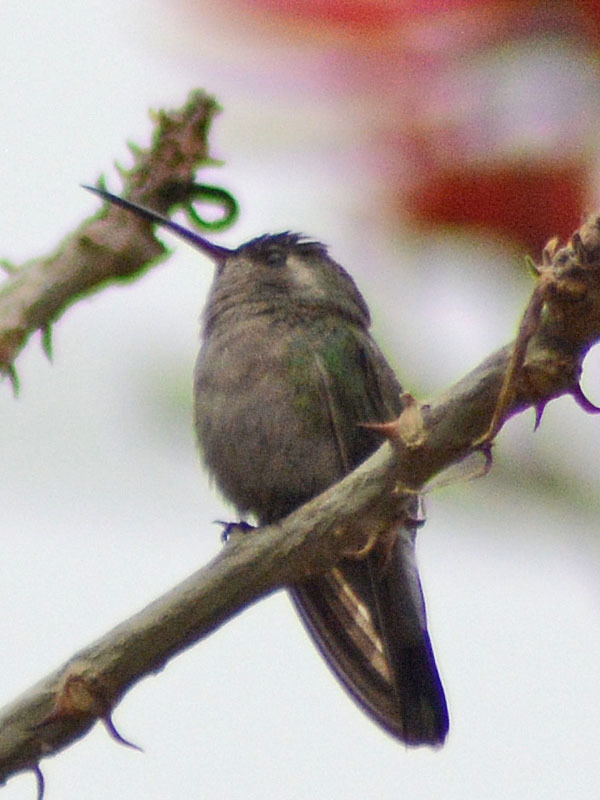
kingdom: Animalia
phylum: Chordata
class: Aves
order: Apodiformes
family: Trochilidae
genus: Cynanthus
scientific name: Cynanthus latirostris
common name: Broad-billed hummingbird
